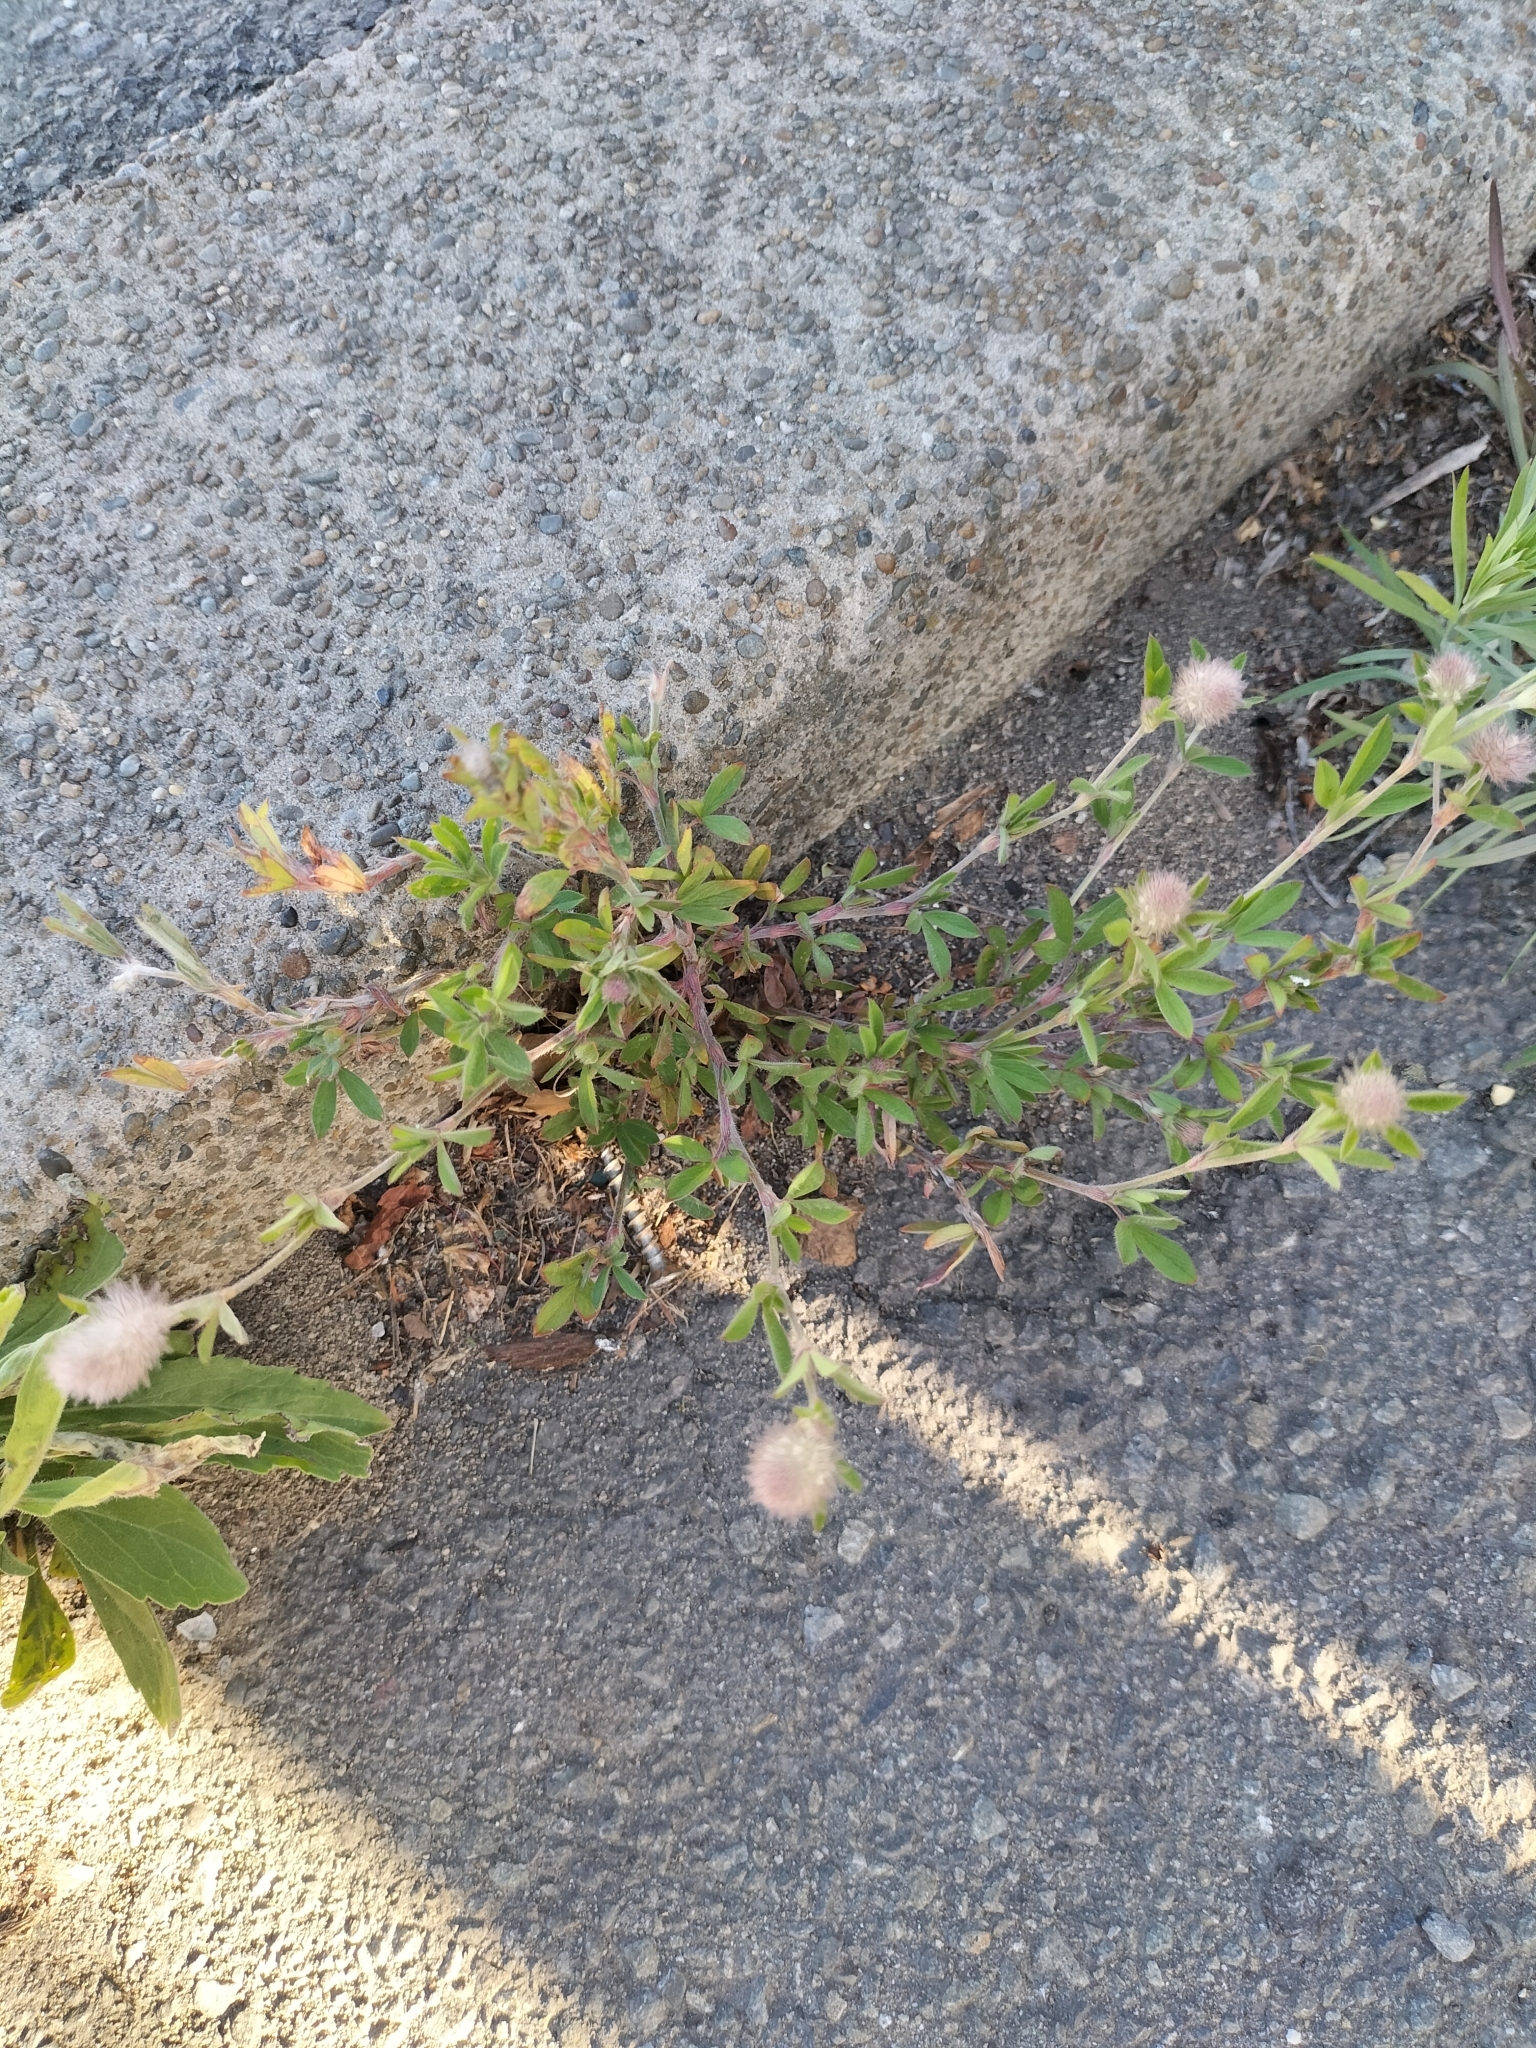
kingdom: Plantae
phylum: Tracheophyta
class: Magnoliopsida
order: Fabales
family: Fabaceae
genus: Trifolium
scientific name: Trifolium arvense
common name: Hare's-foot clover
